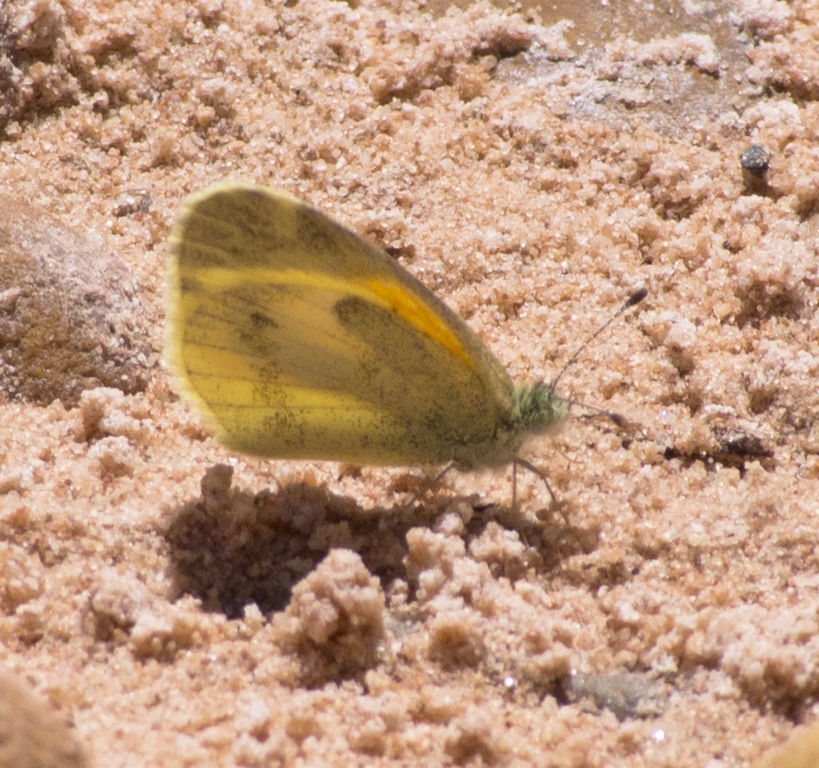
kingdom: Animalia
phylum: Arthropoda
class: Insecta
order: Lepidoptera
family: Pieridae
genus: Nathalis
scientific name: Nathalis iole
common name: Dainty sulphur
